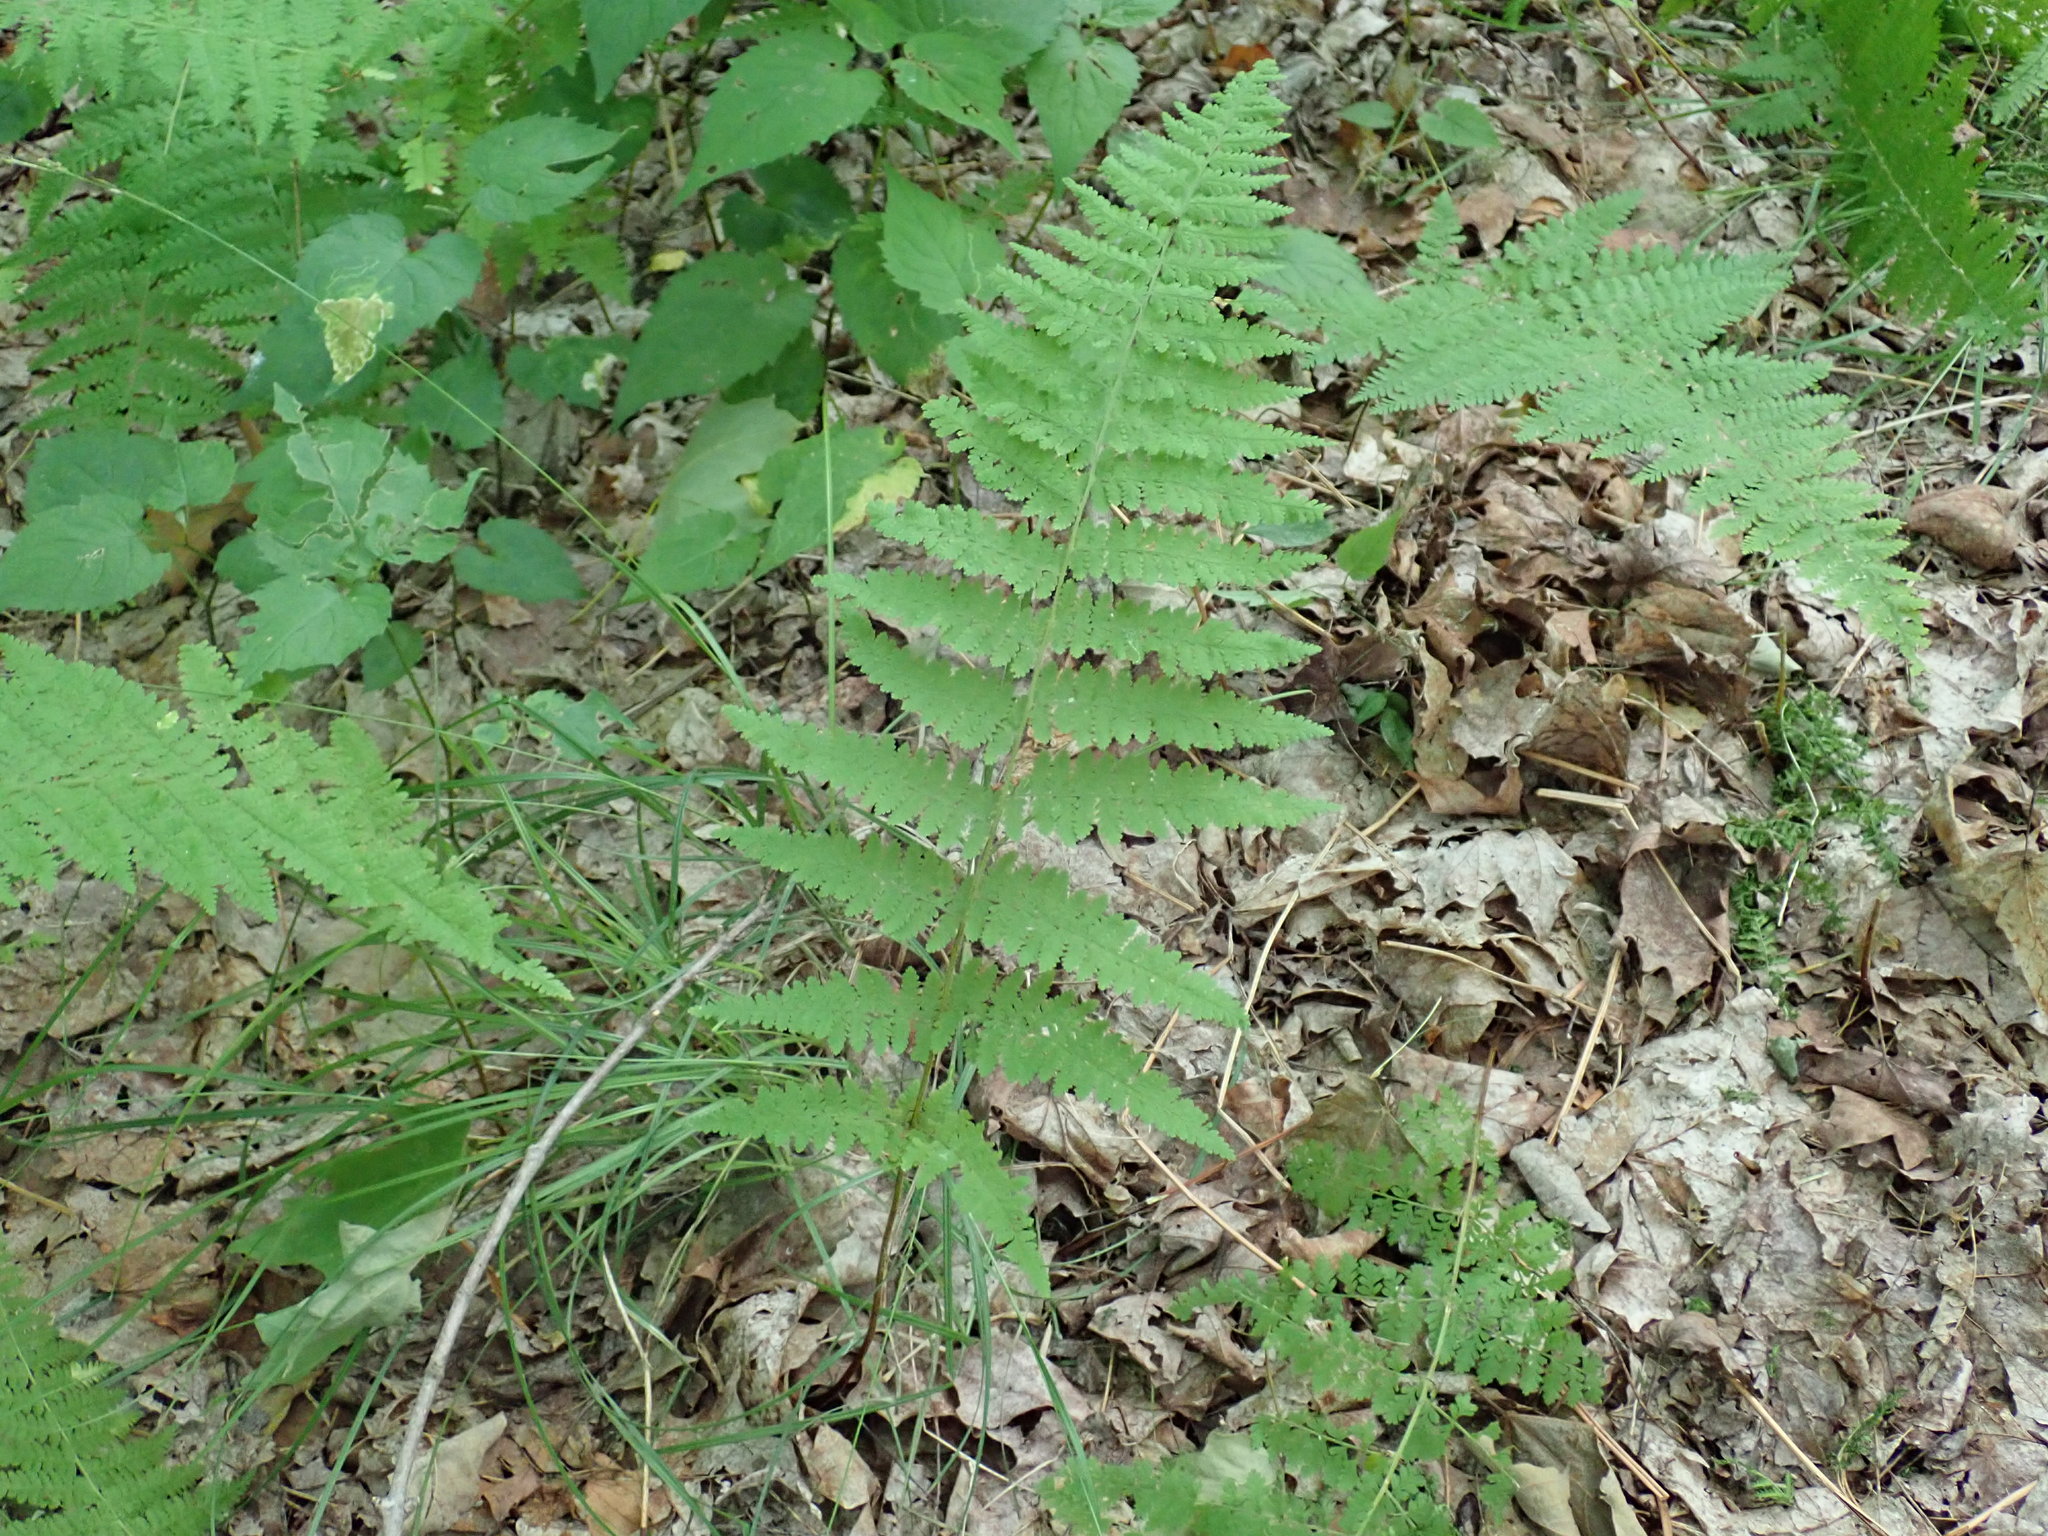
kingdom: Plantae
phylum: Tracheophyta
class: Polypodiopsida
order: Polypodiales
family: Dennstaedtiaceae
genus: Sitobolium
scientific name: Sitobolium punctilobum
